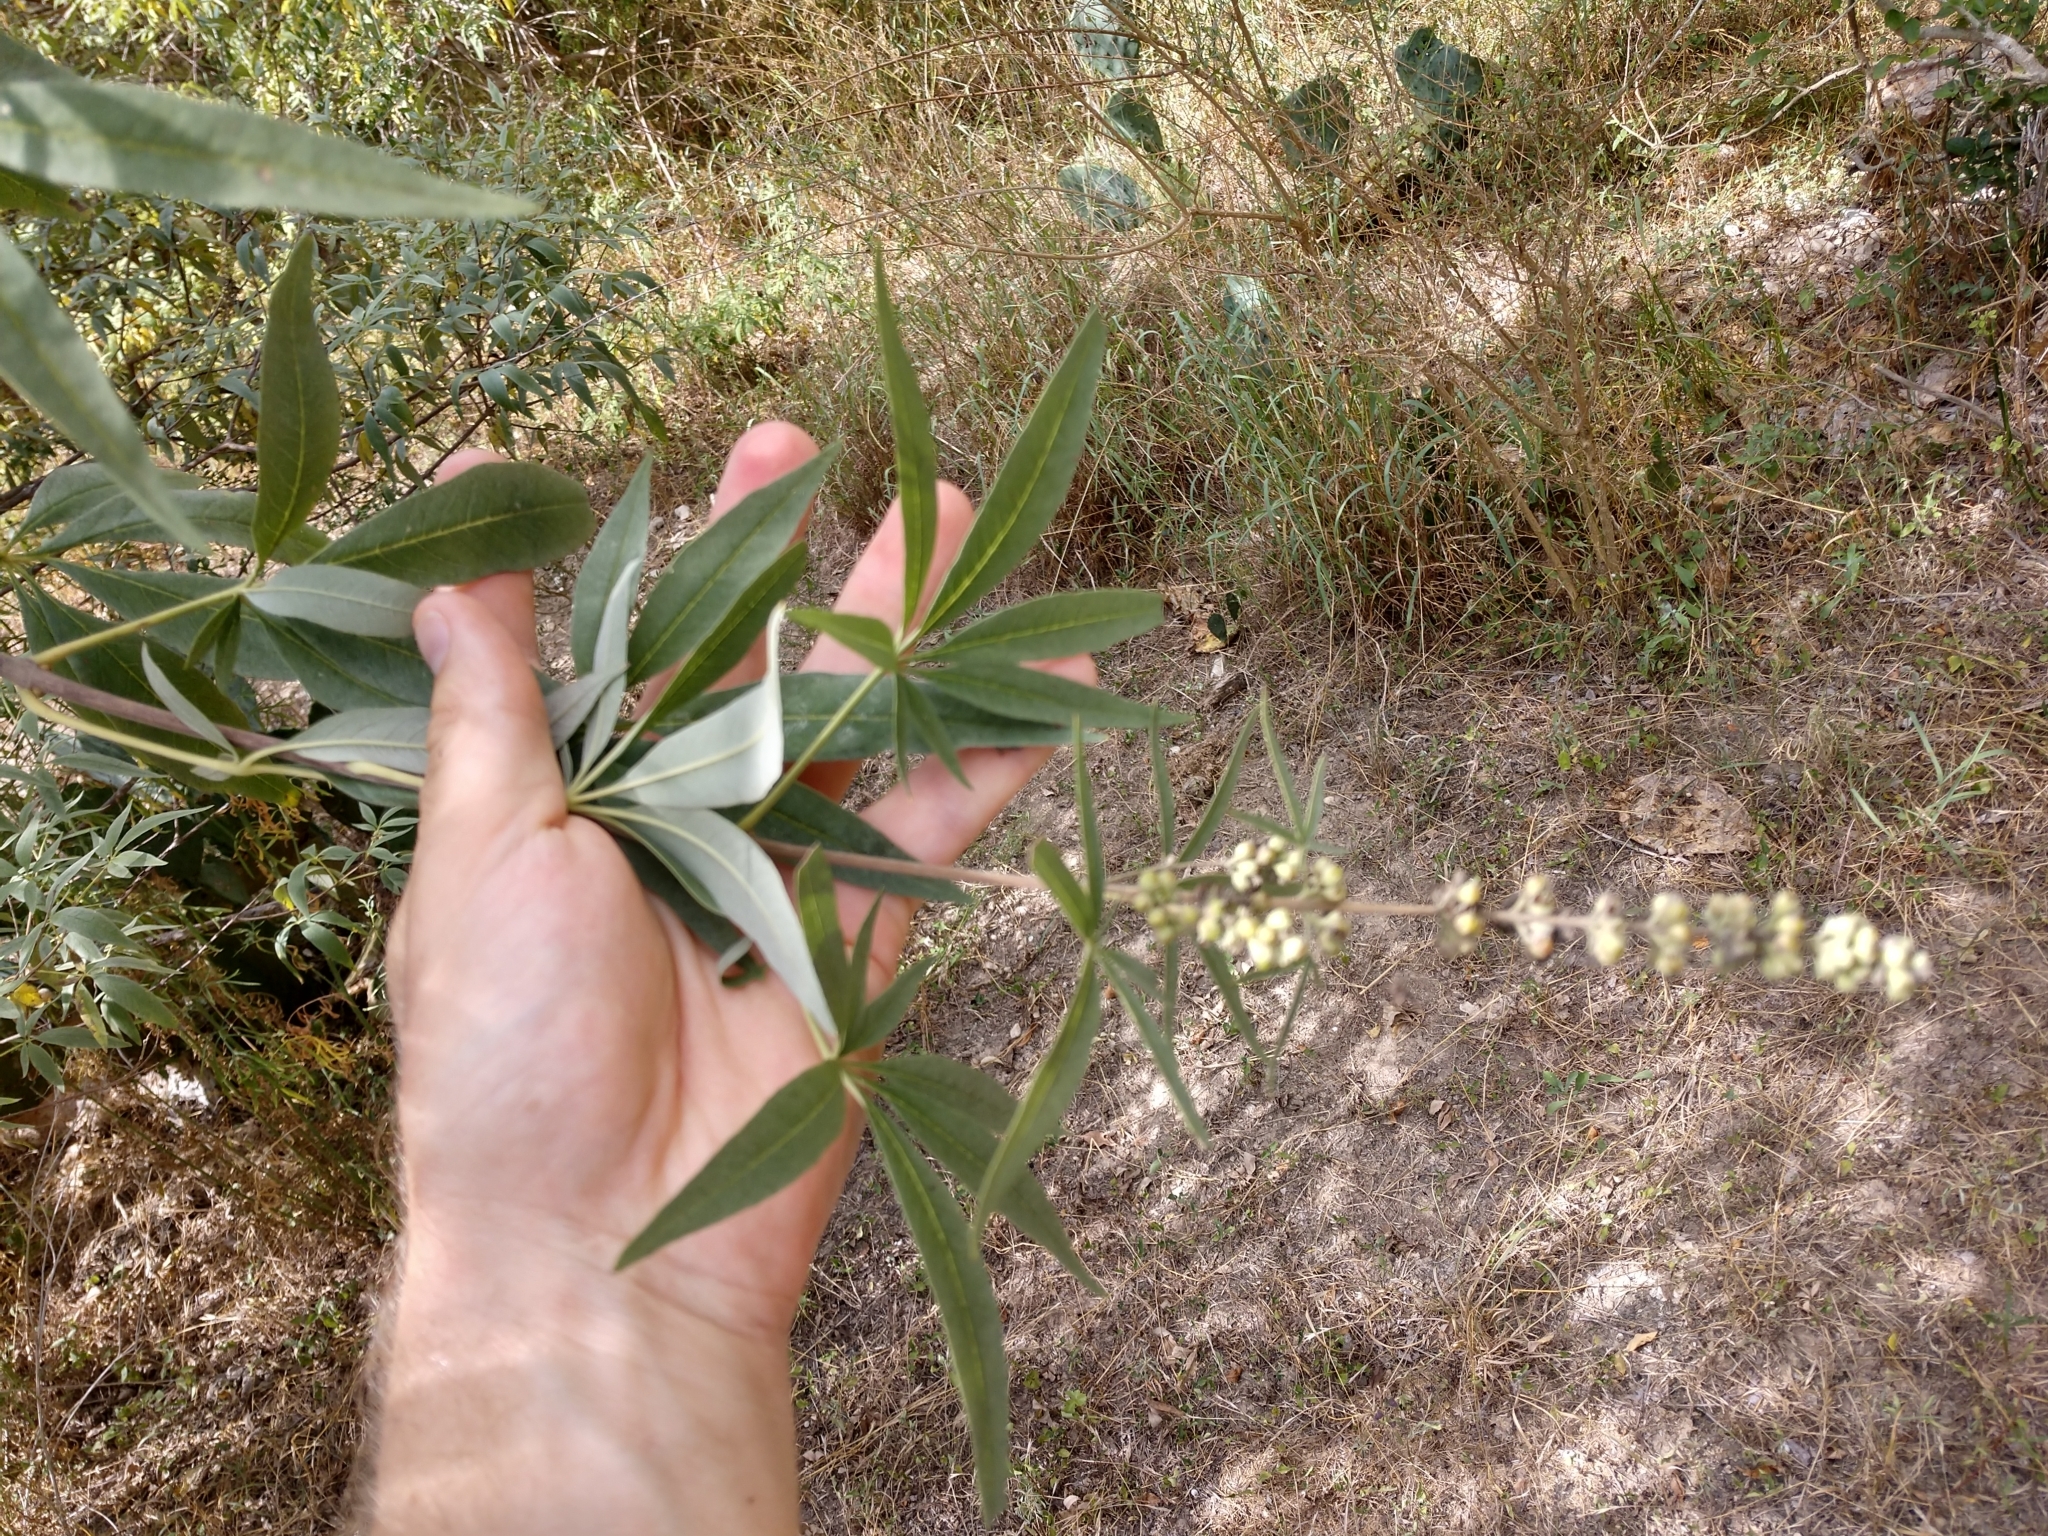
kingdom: Plantae
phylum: Tracheophyta
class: Magnoliopsida
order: Lamiales
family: Lamiaceae
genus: Vitex
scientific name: Vitex agnus-castus
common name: Chasteberry
